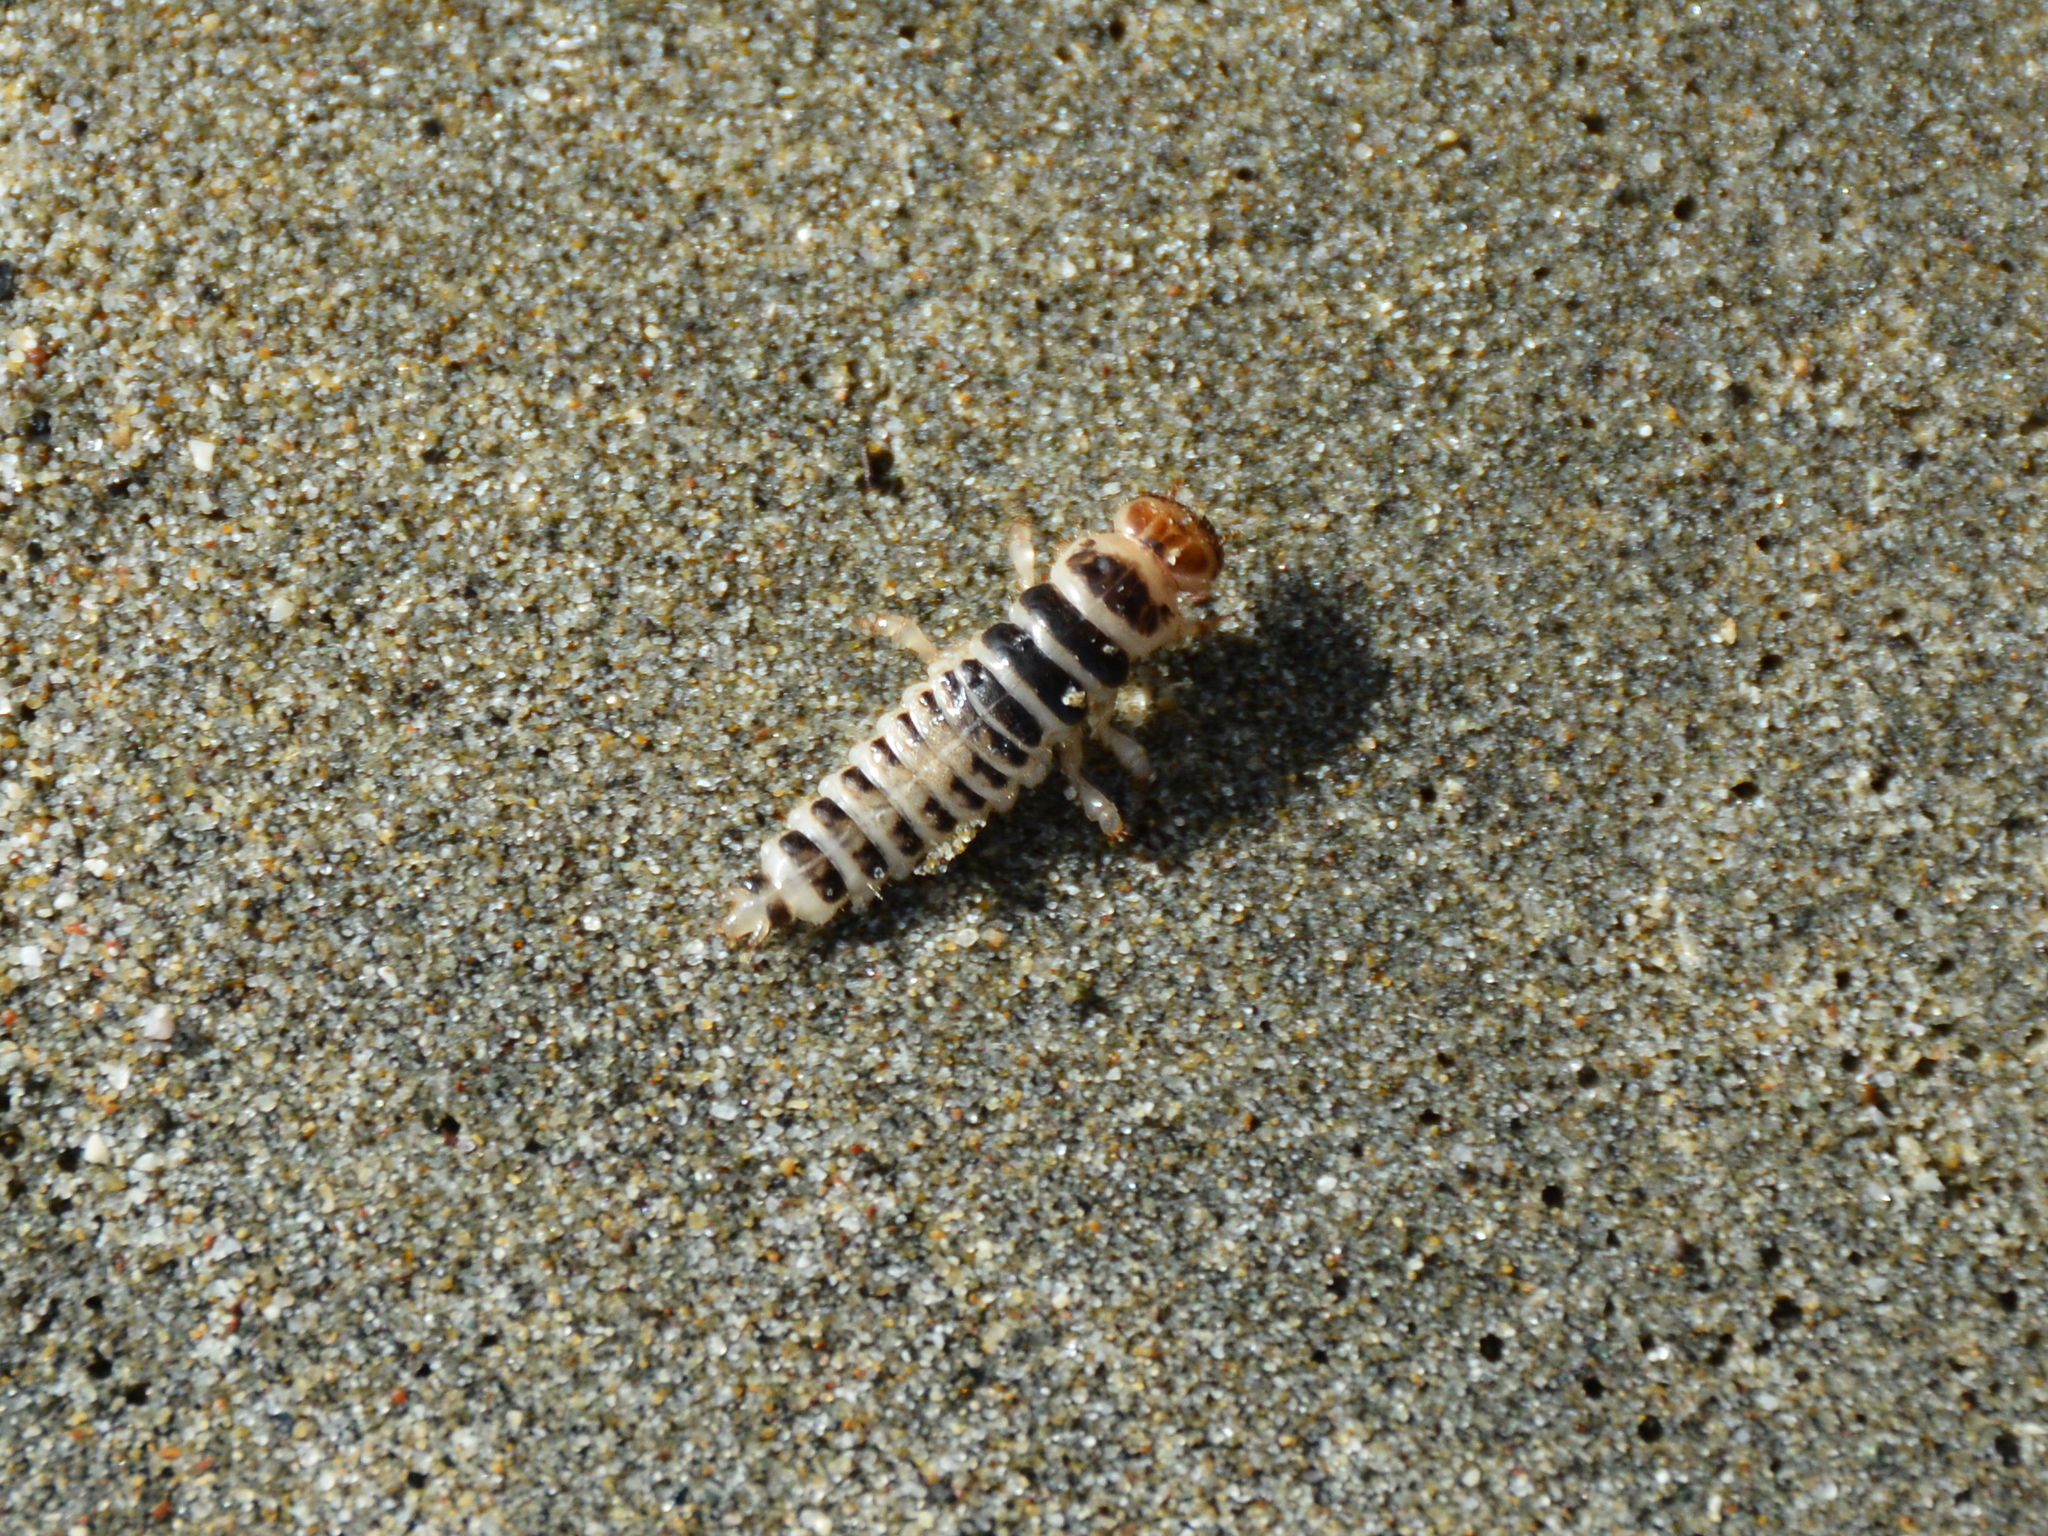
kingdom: Animalia
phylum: Arthropoda
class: Insecta
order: Coleoptera
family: Staphylinidae
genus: Thinopinus
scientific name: Thinopinus pictus
